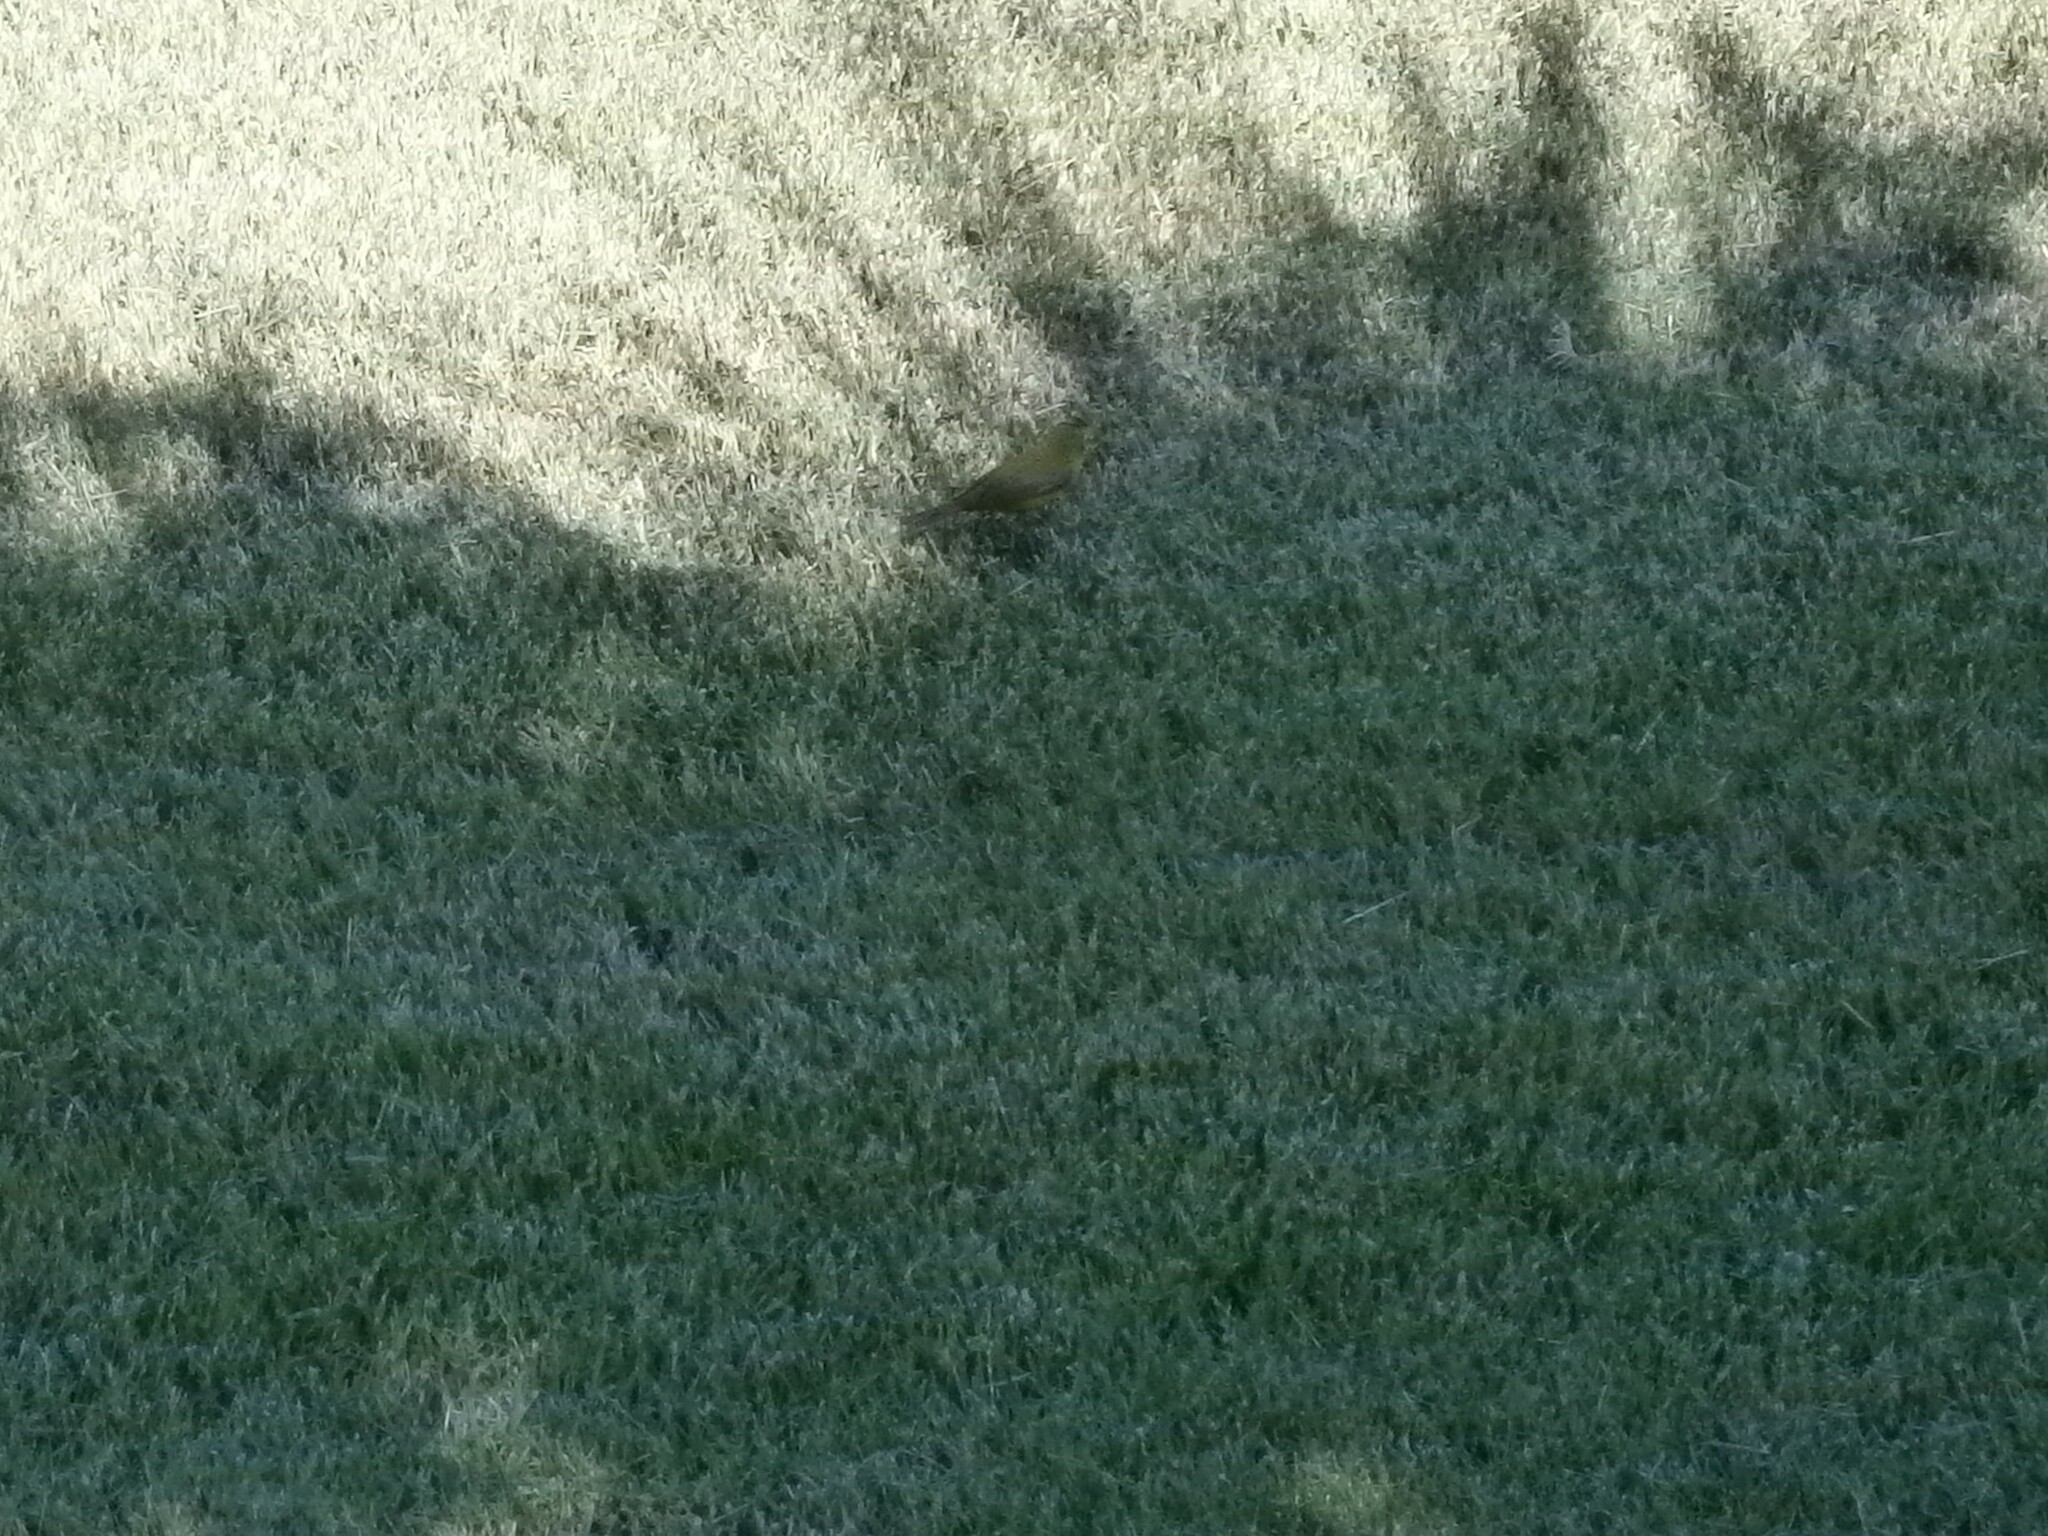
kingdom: Animalia
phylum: Chordata
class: Aves
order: Passeriformes
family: Parulidae
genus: Cardellina
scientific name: Cardellina pusilla
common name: Wilson's warbler
